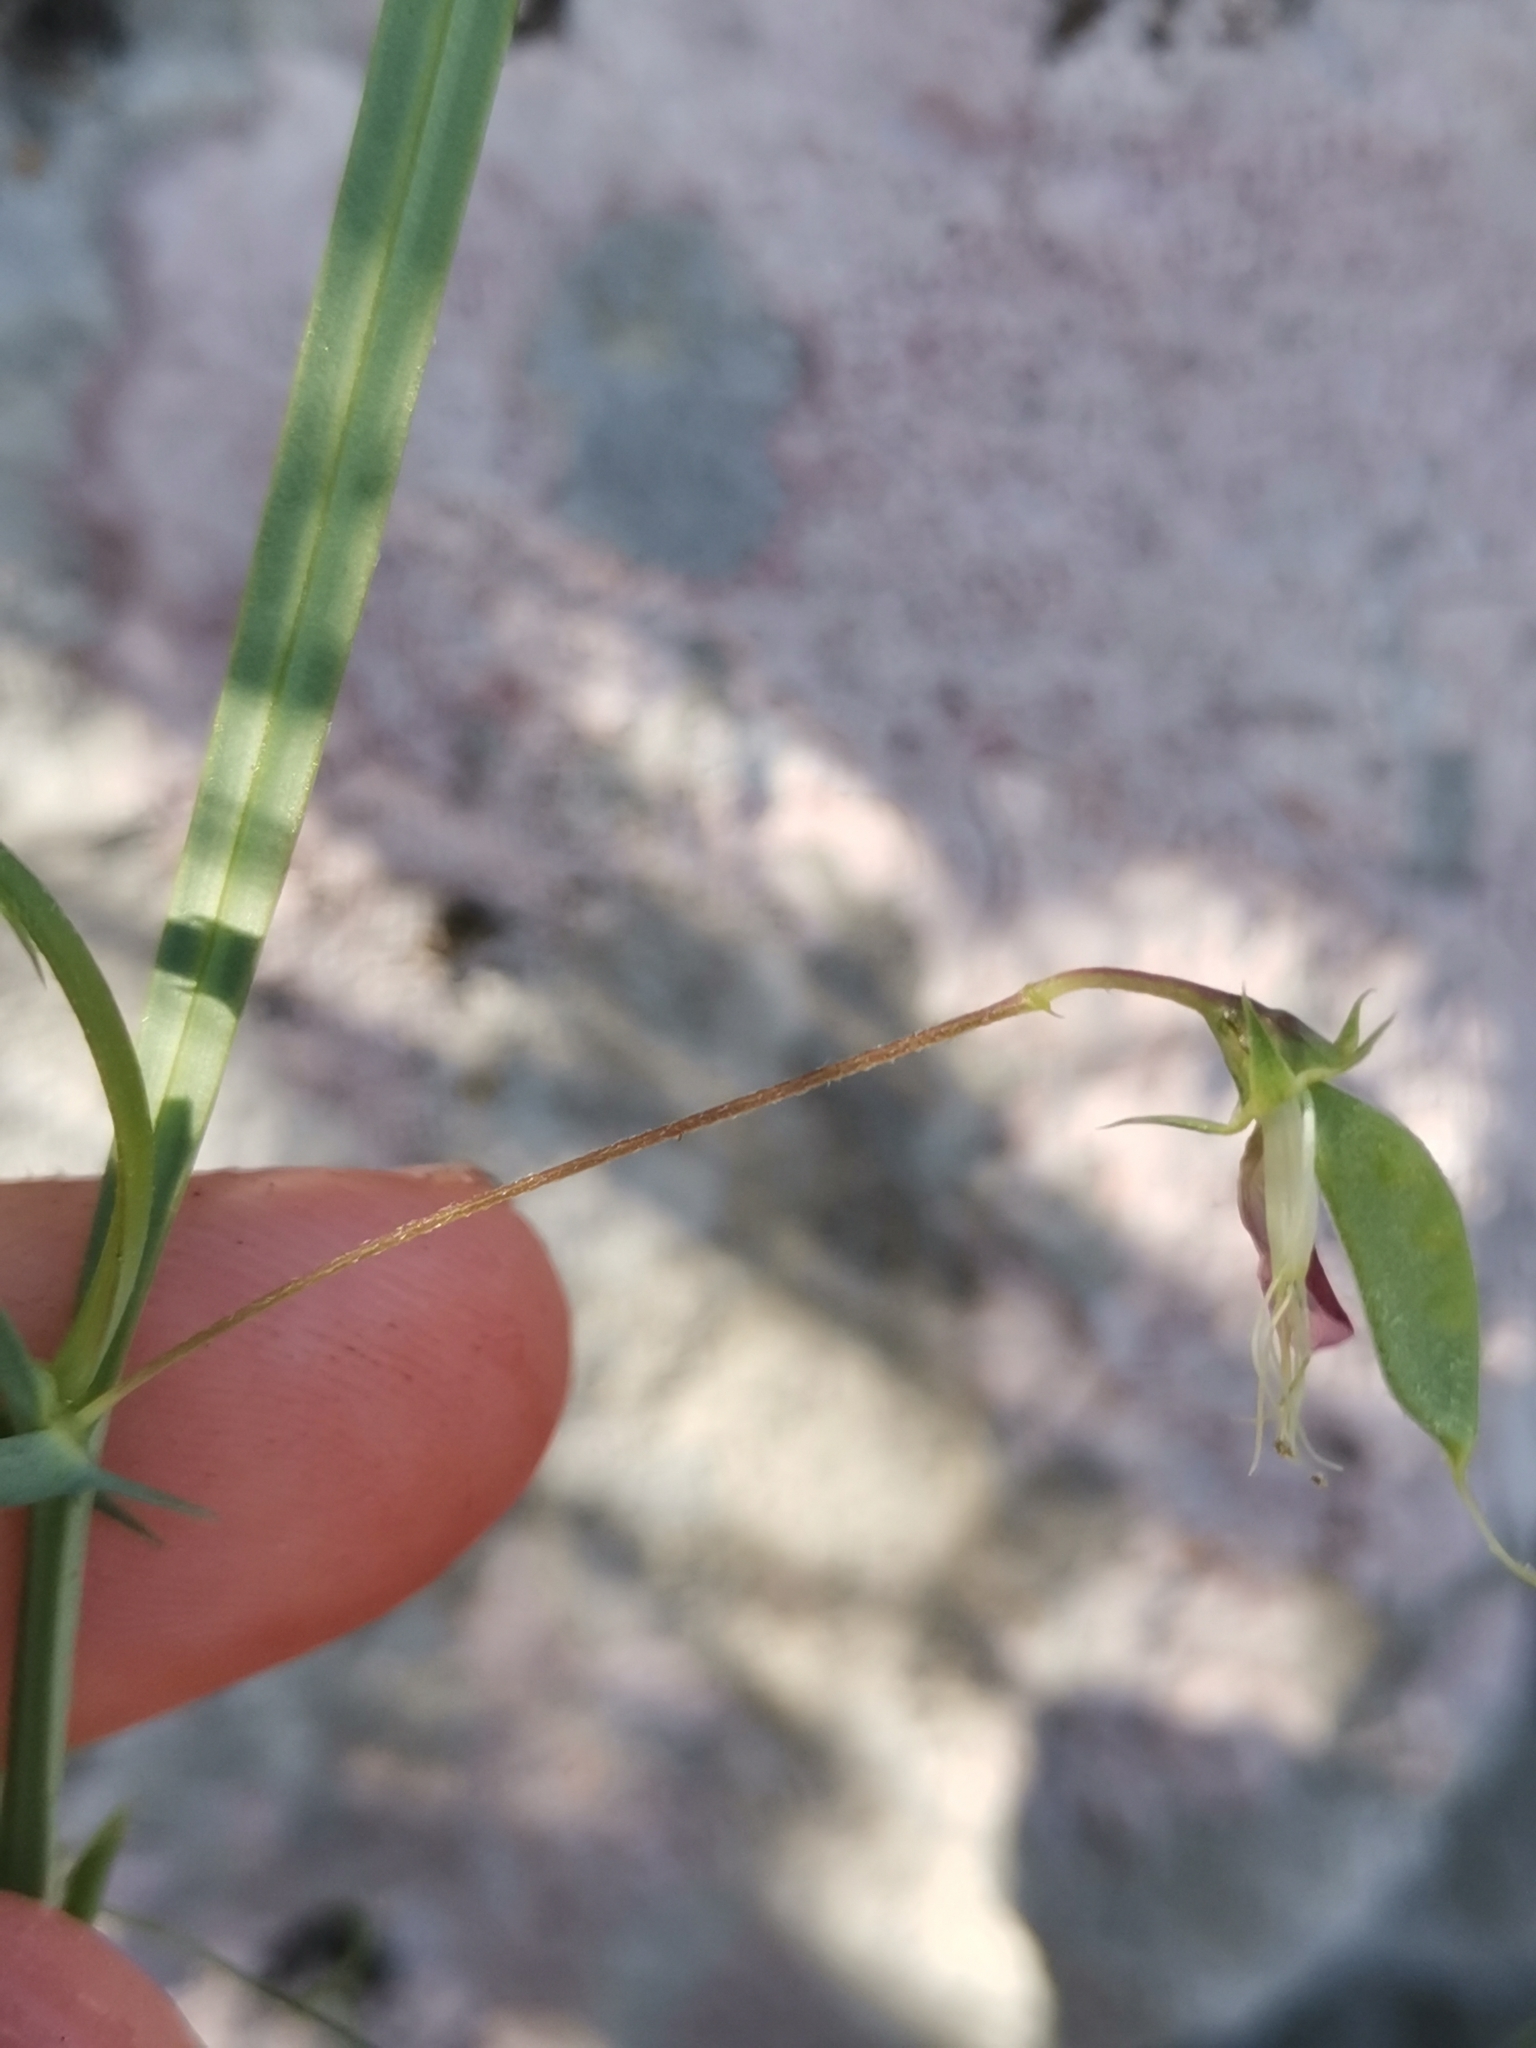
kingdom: Plantae
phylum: Tracheophyta
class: Magnoliopsida
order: Fabales
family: Fabaceae
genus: Lathyrus
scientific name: Lathyrus cicera
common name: Red vetchling
